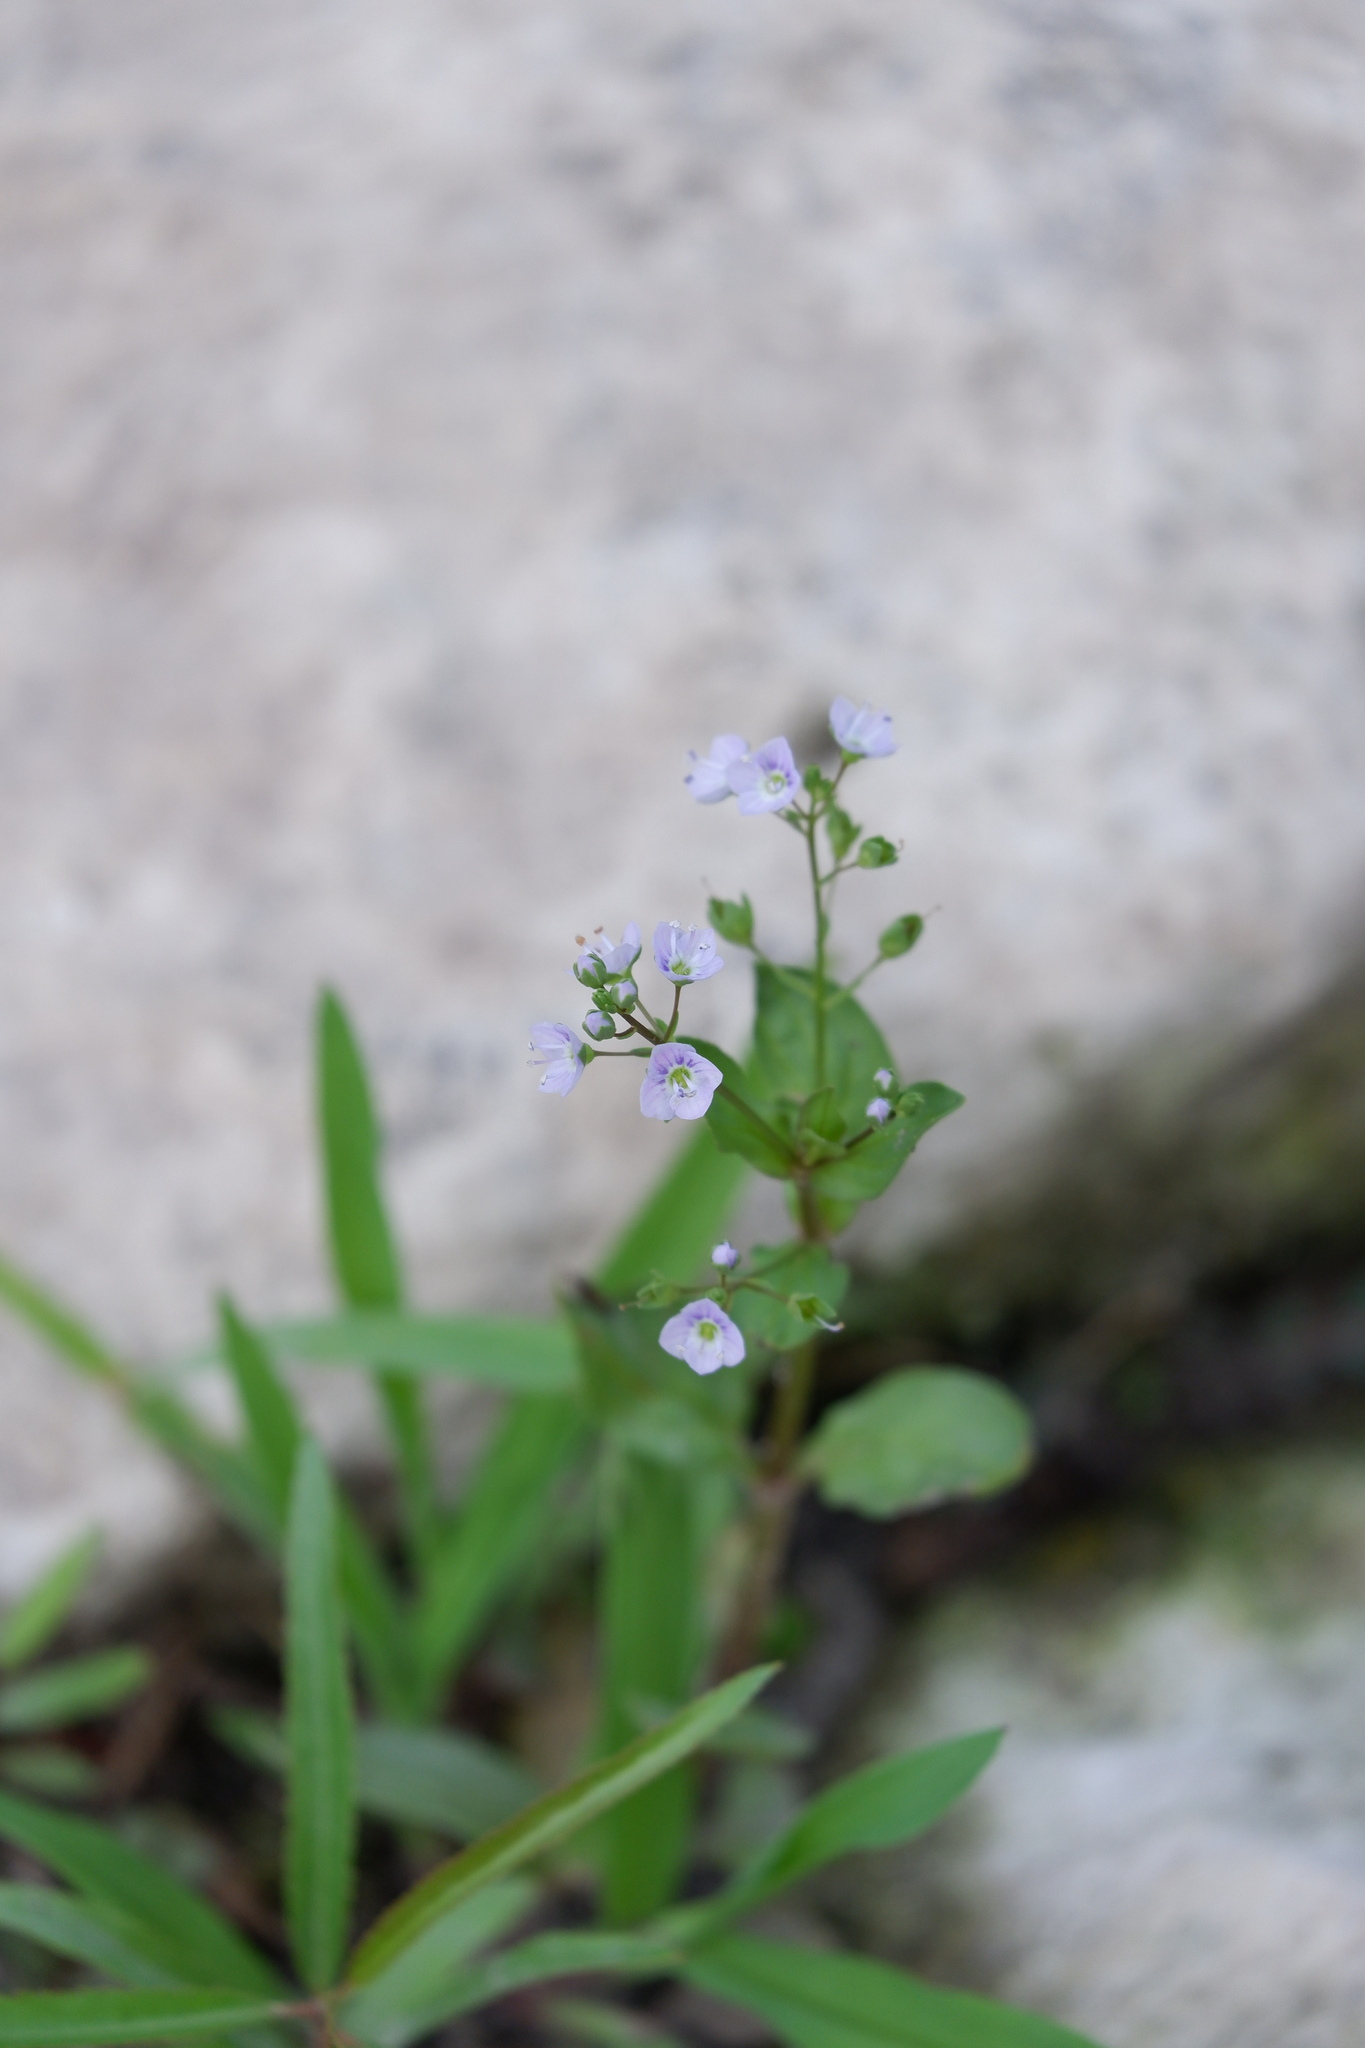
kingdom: Plantae
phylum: Tracheophyta
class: Magnoliopsida
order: Lamiales
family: Plantaginaceae
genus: Veronica
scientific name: Veronica anagallis-aquatica
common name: Water speedwell
